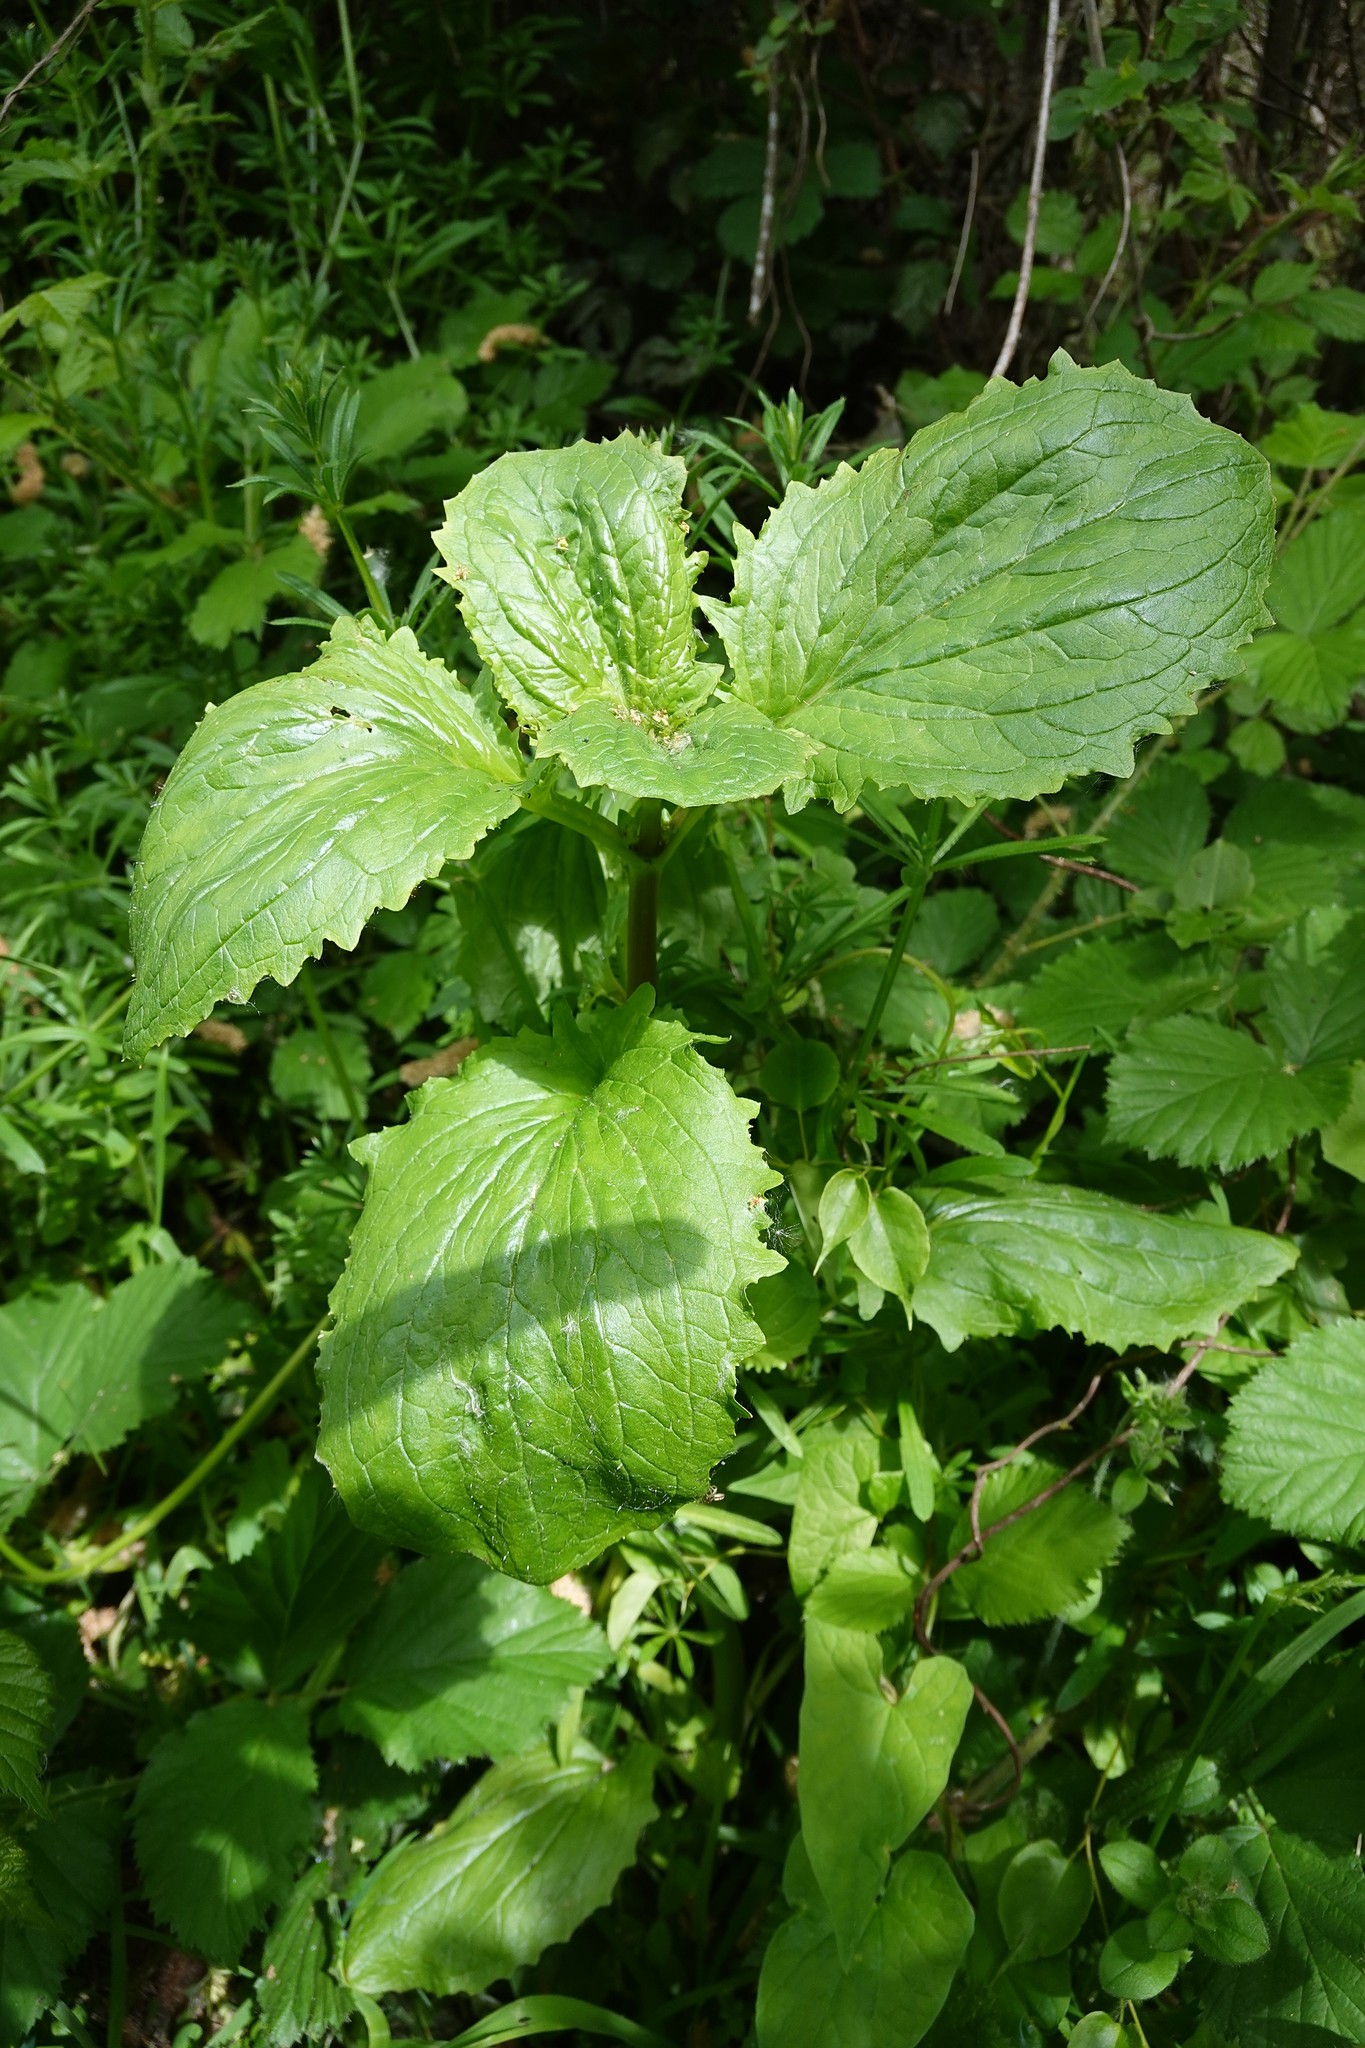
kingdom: Plantae
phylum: Tracheophyta
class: Magnoliopsida
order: Lamiales
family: Phrymaceae
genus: Erythranthe
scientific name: Erythranthe guttata
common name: Monkeyflower
